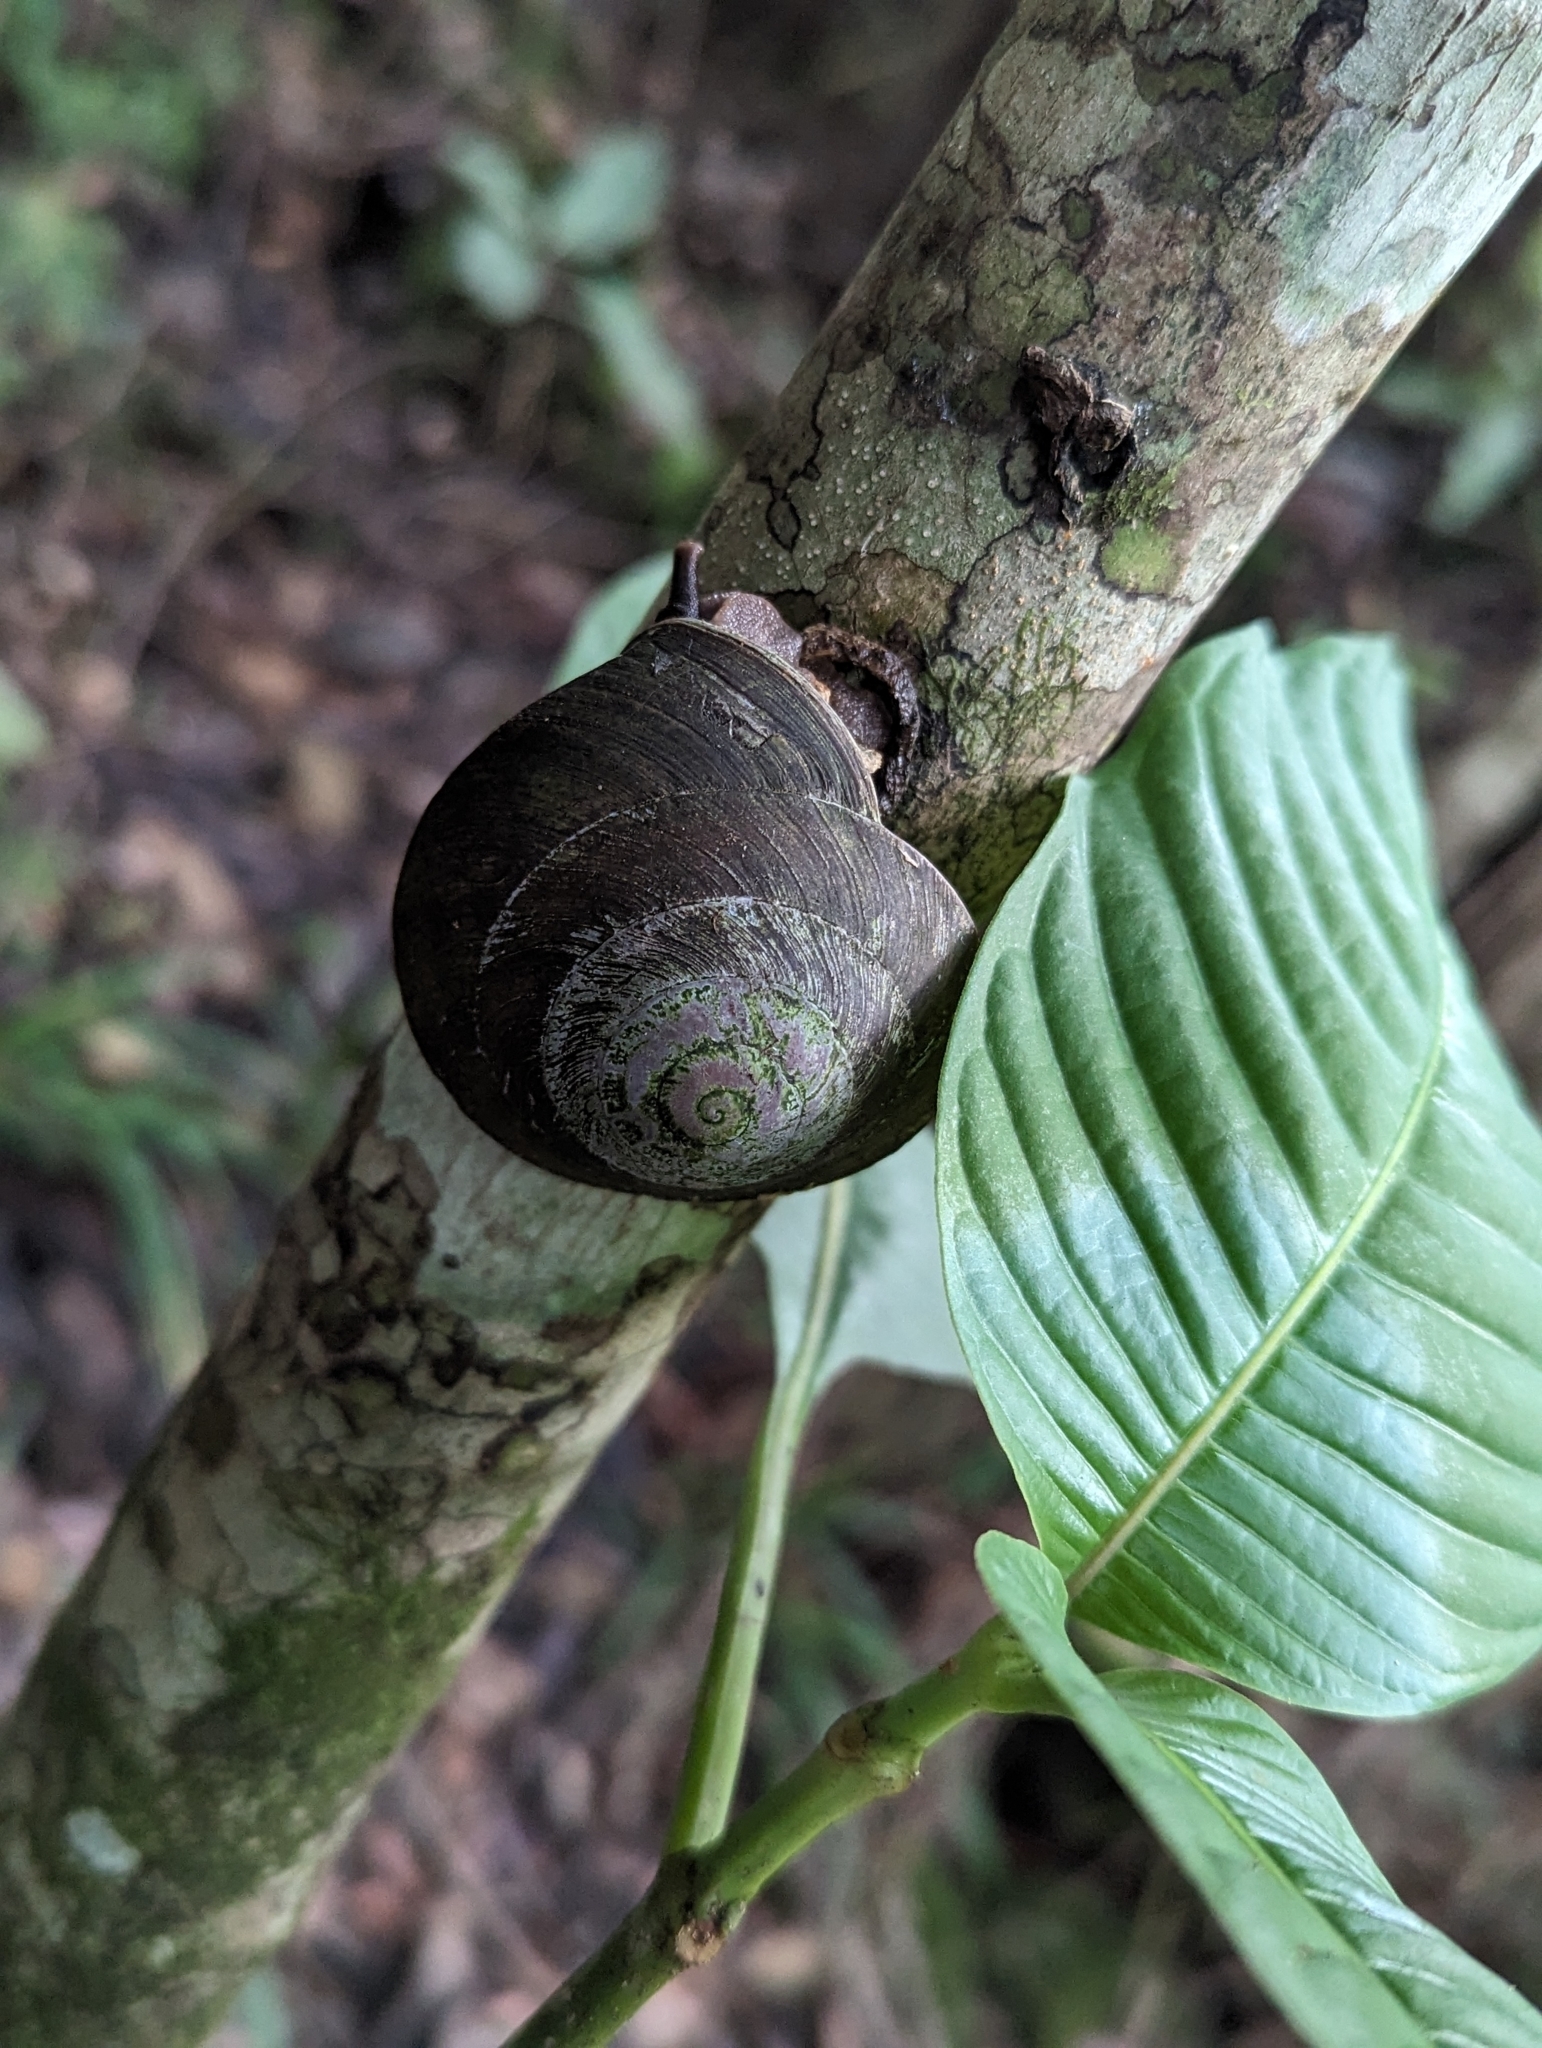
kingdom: Animalia
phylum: Mollusca
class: Gastropoda
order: Stylommatophora
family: Solaropsidae
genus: Caracolus
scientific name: Caracolus carocolla
